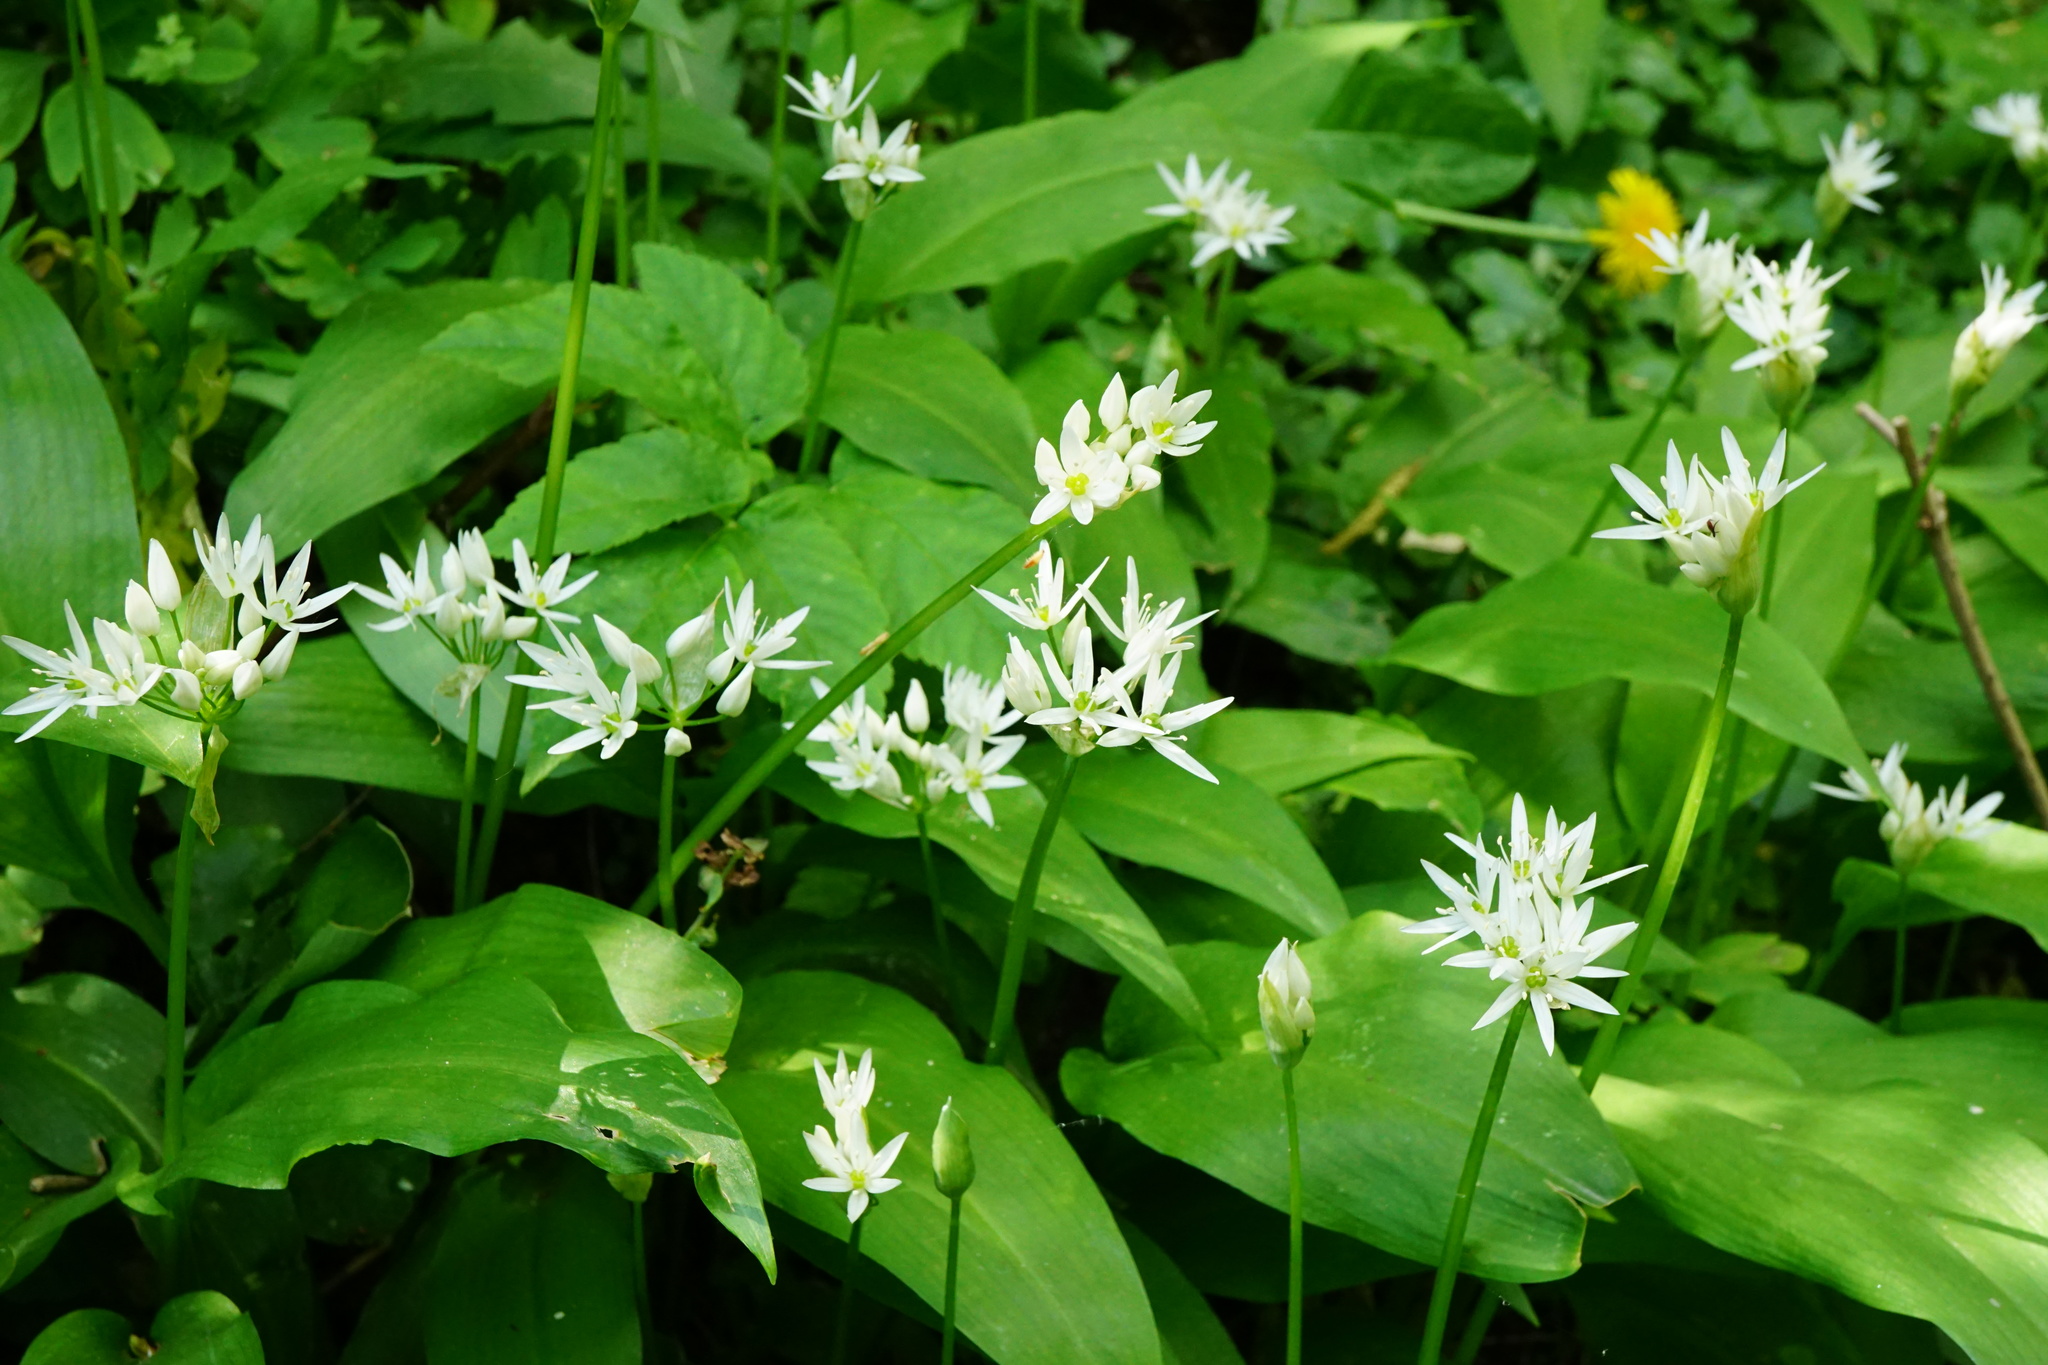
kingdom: Plantae
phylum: Tracheophyta
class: Liliopsida
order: Asparagales
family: Amaryllidaceae
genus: Allium
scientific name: Allium ursinum
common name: Ramsons
